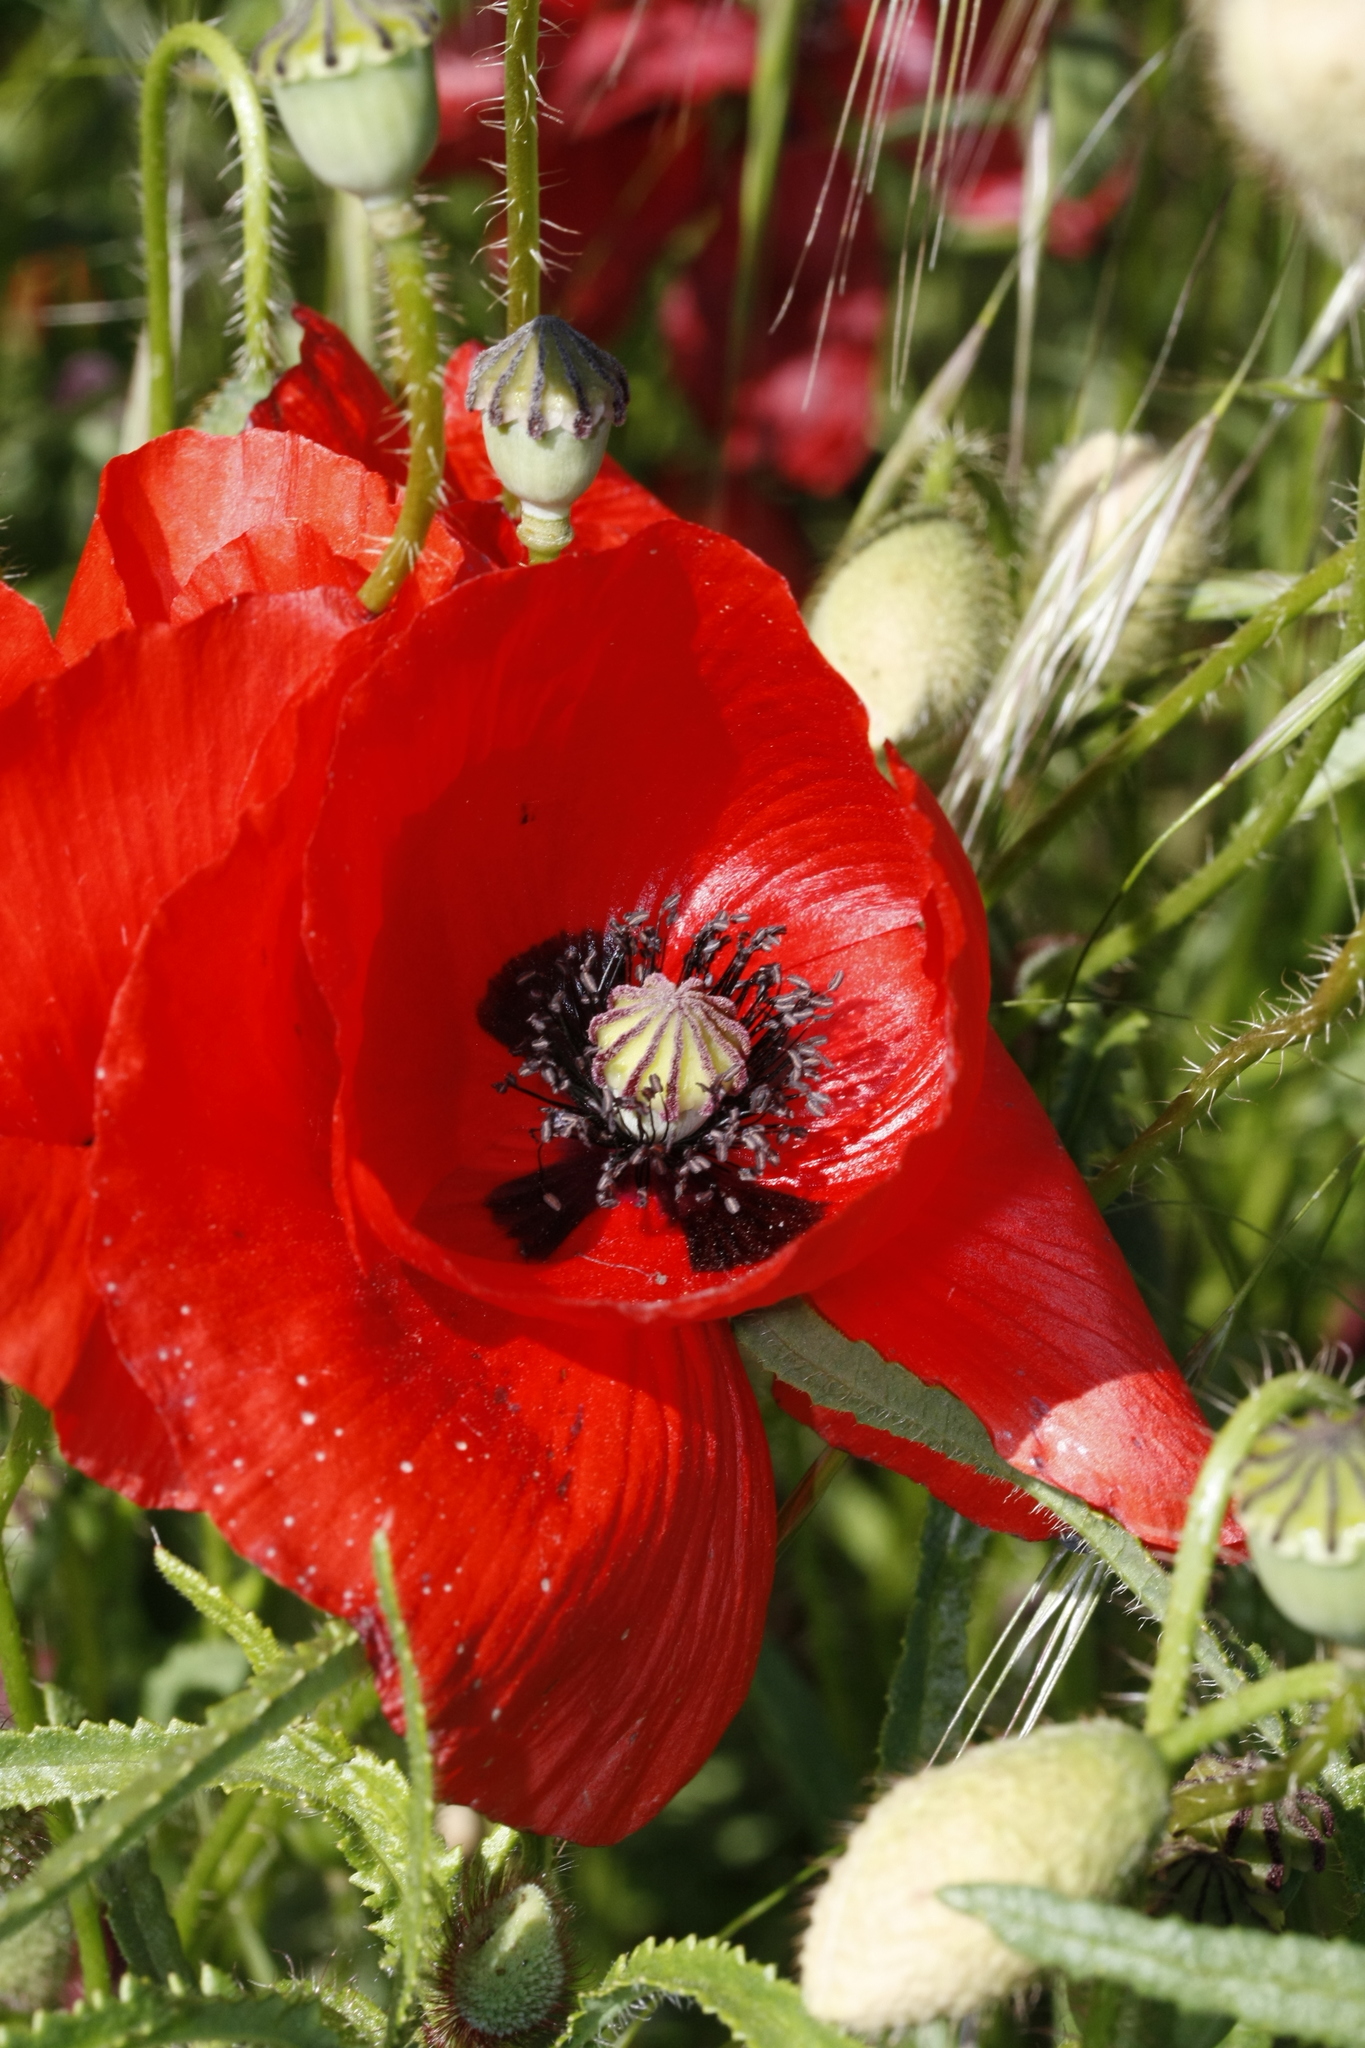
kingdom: Plantae
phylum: Tracheophyta
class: Magnoliopsida
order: Ranunculales
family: Papaveraceae
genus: Papaver
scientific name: Papaver rhoeas
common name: Corn poppy
